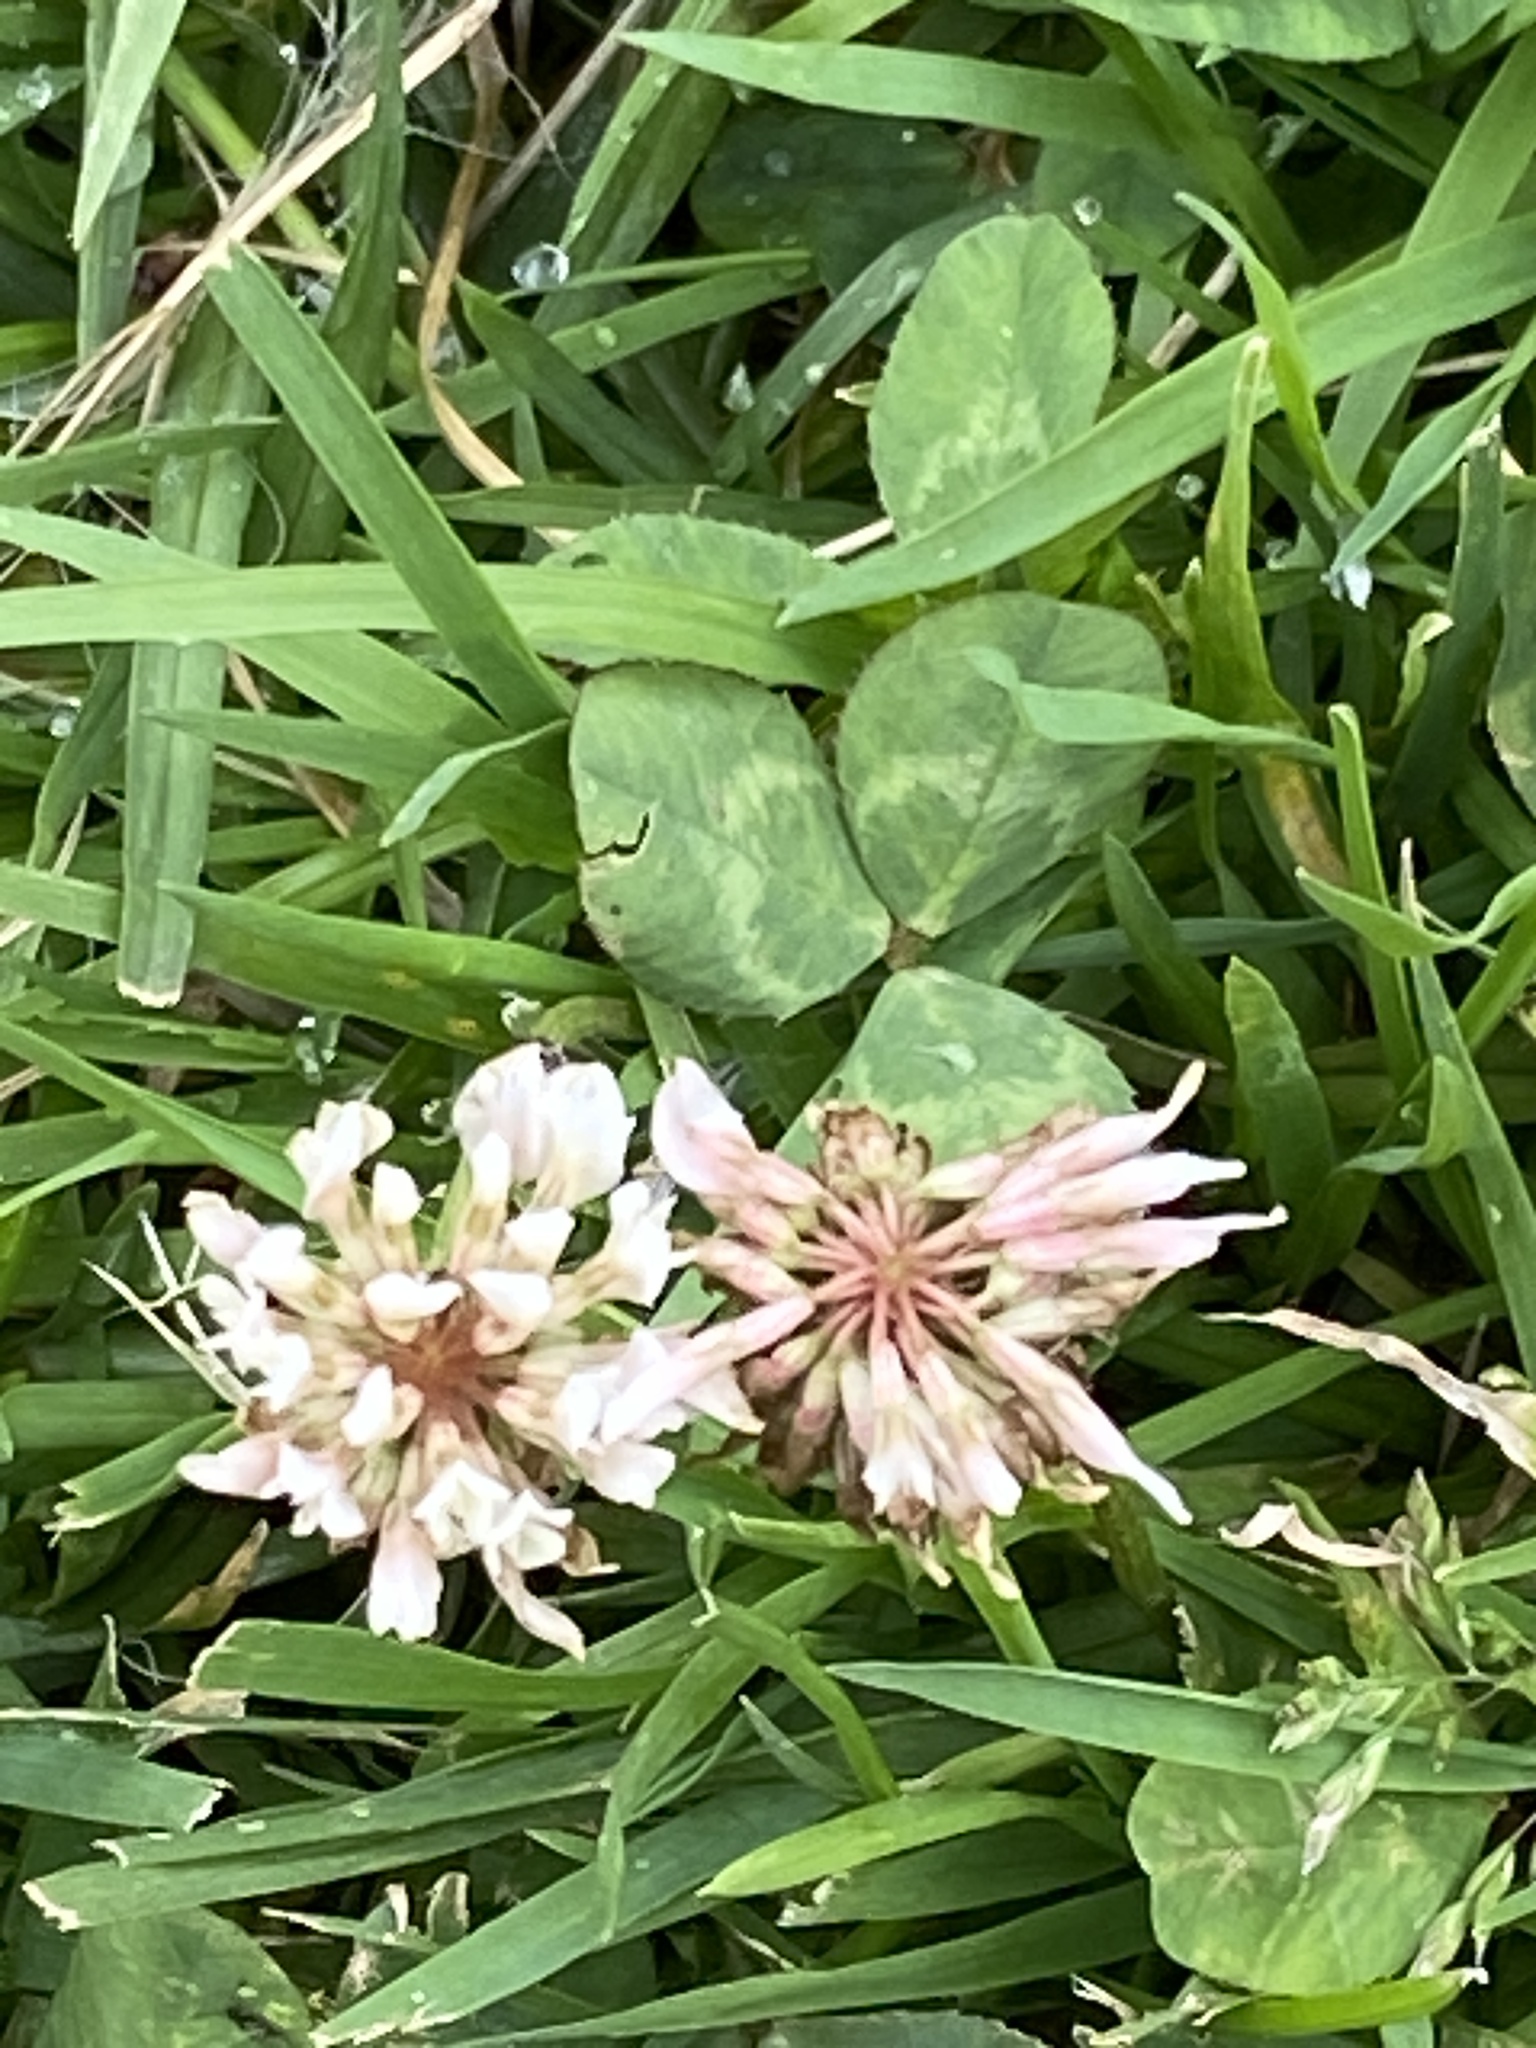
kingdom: Plantae
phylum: Tracheophyta
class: Magnoliopsida
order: Fabales
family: Fabaceae
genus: Trifolium
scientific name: Trifolium repens
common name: White clover
